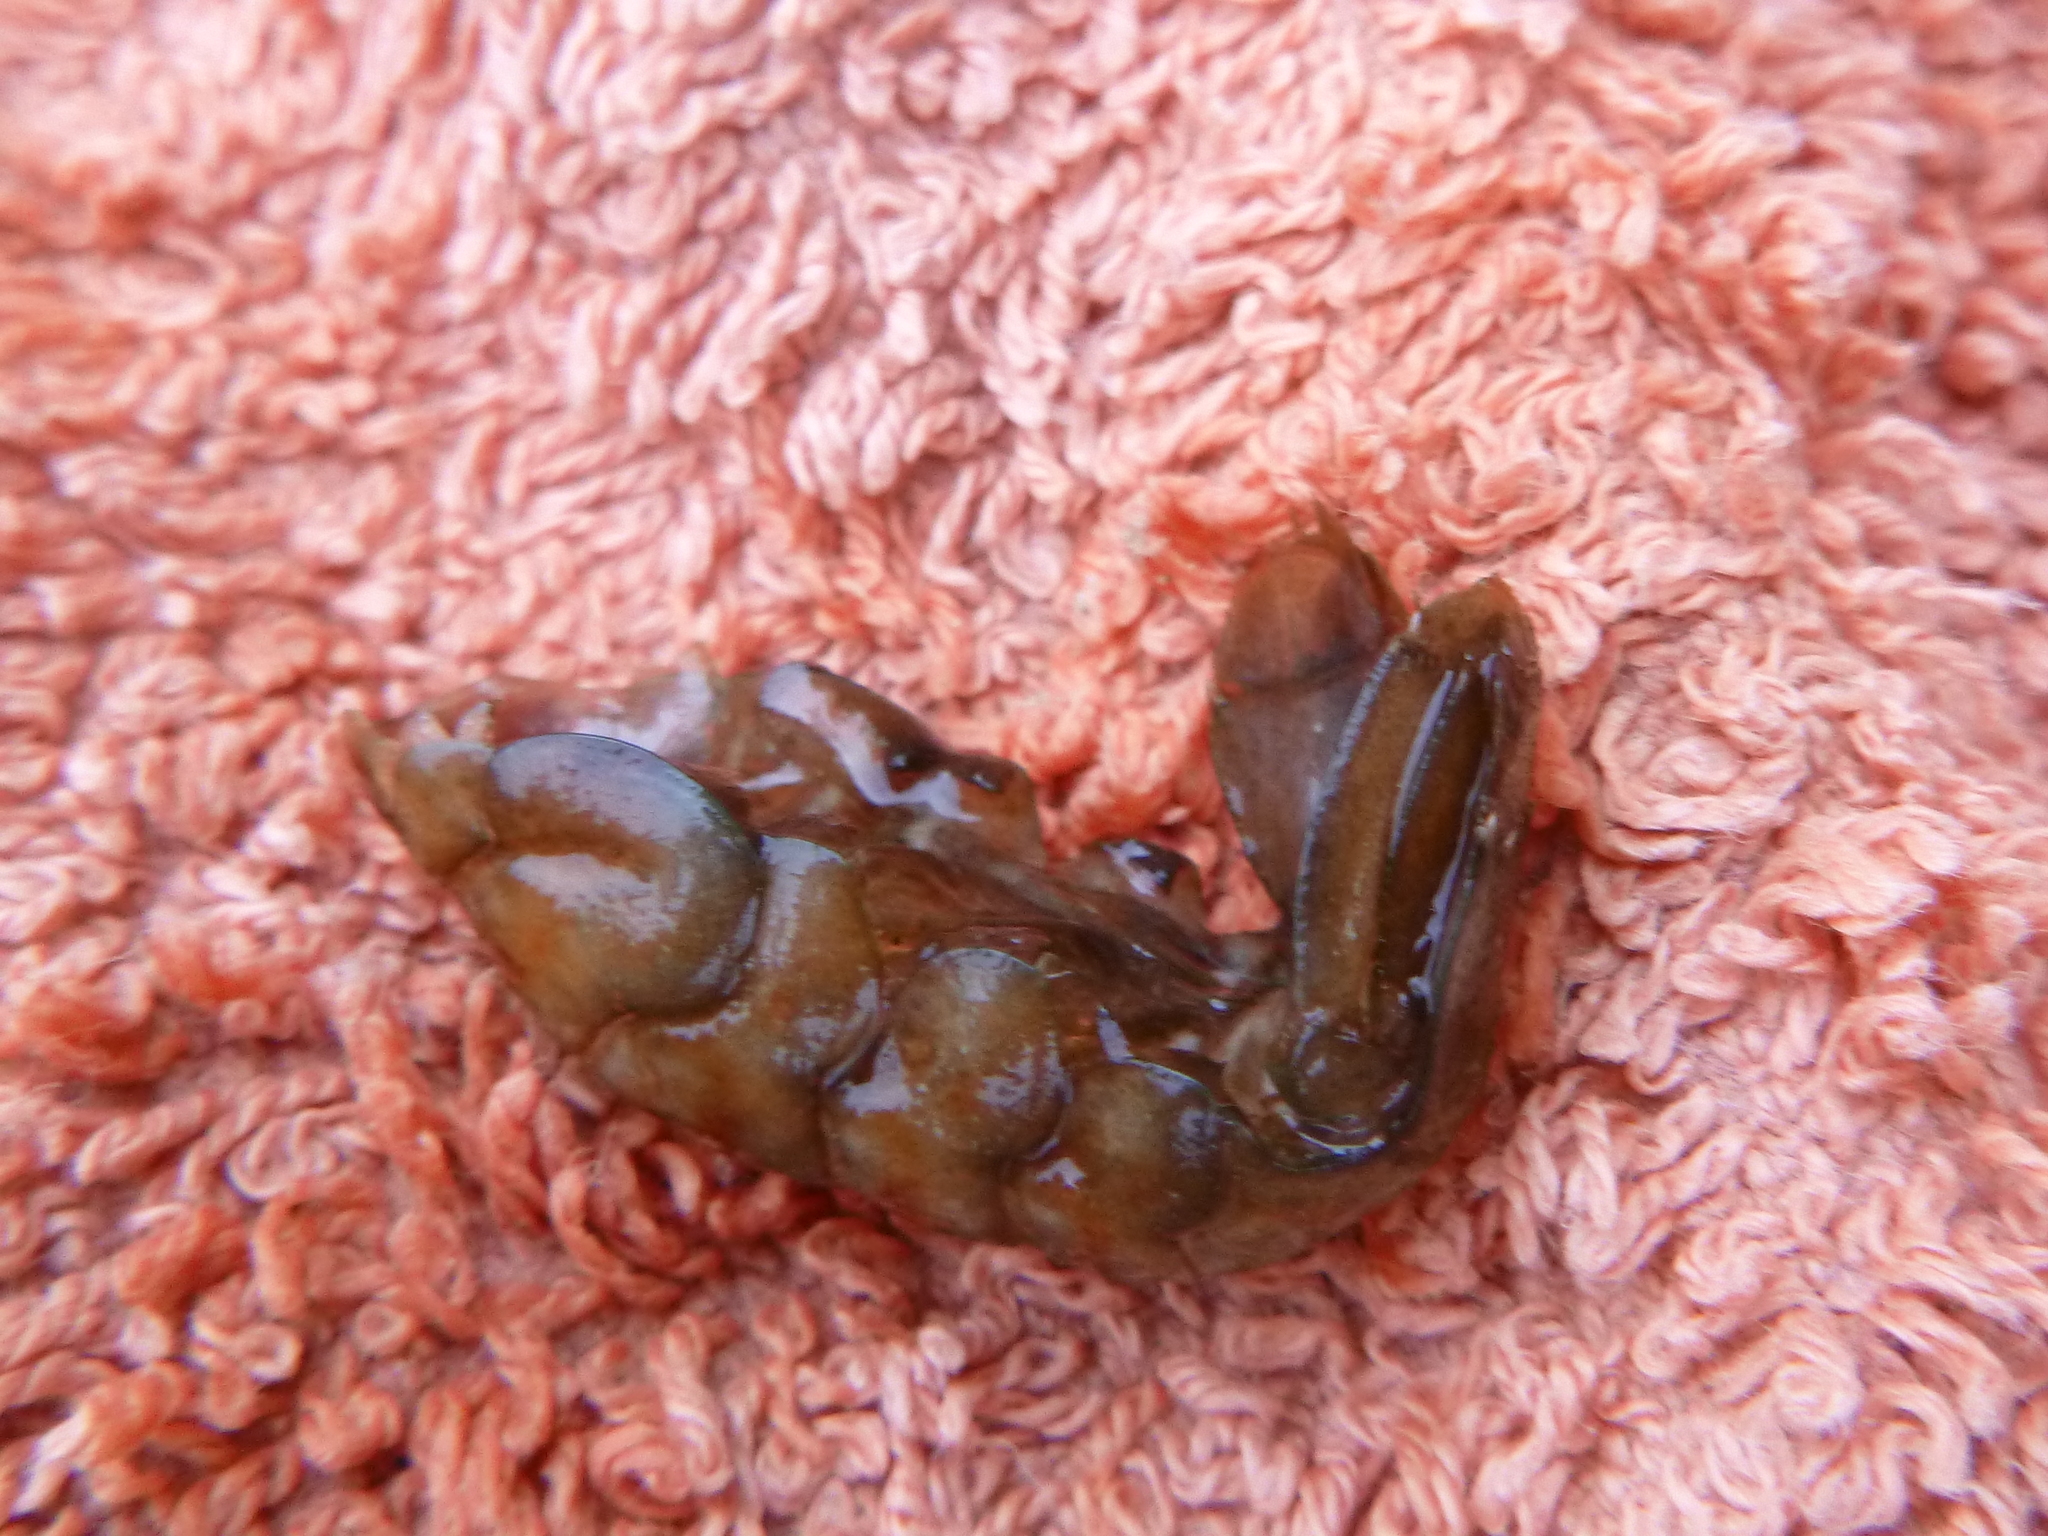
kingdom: Animalia
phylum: Arthropoda
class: Malacostraca
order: Decapoda
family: Cambaridae
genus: Faxonius
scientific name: Faxonius limosus
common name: American crayfish
